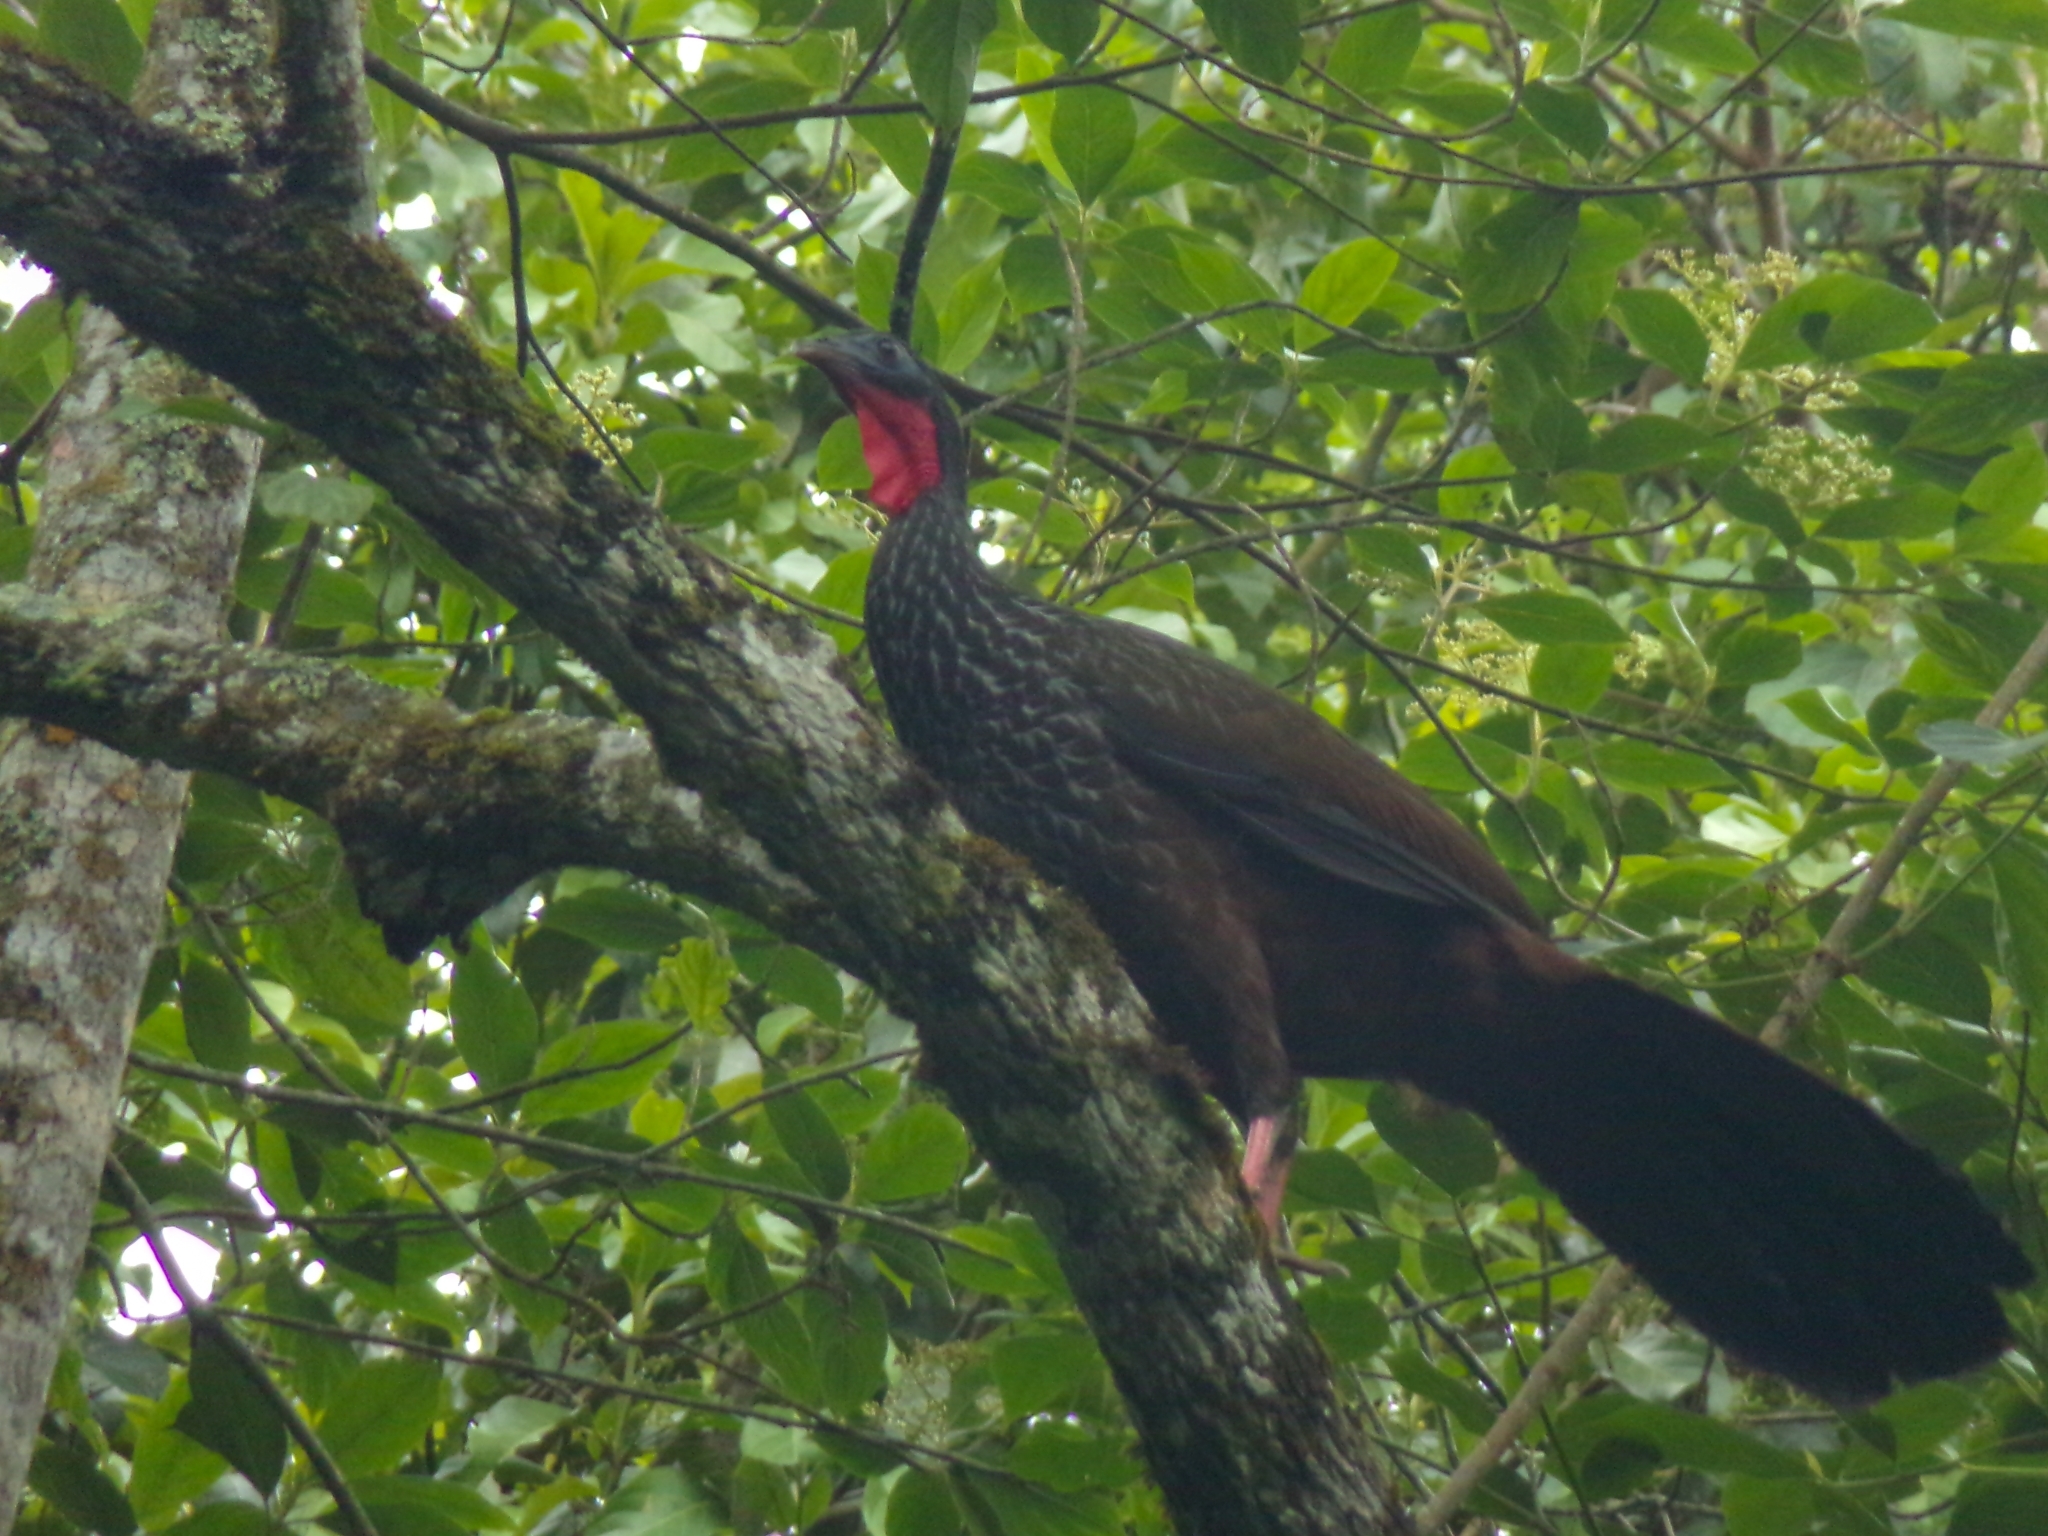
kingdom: Animalia
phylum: Chordata
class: Aves
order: Galliformes
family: Cracidae
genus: Penelope
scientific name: Penelope perspicax
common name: Cauca guan
